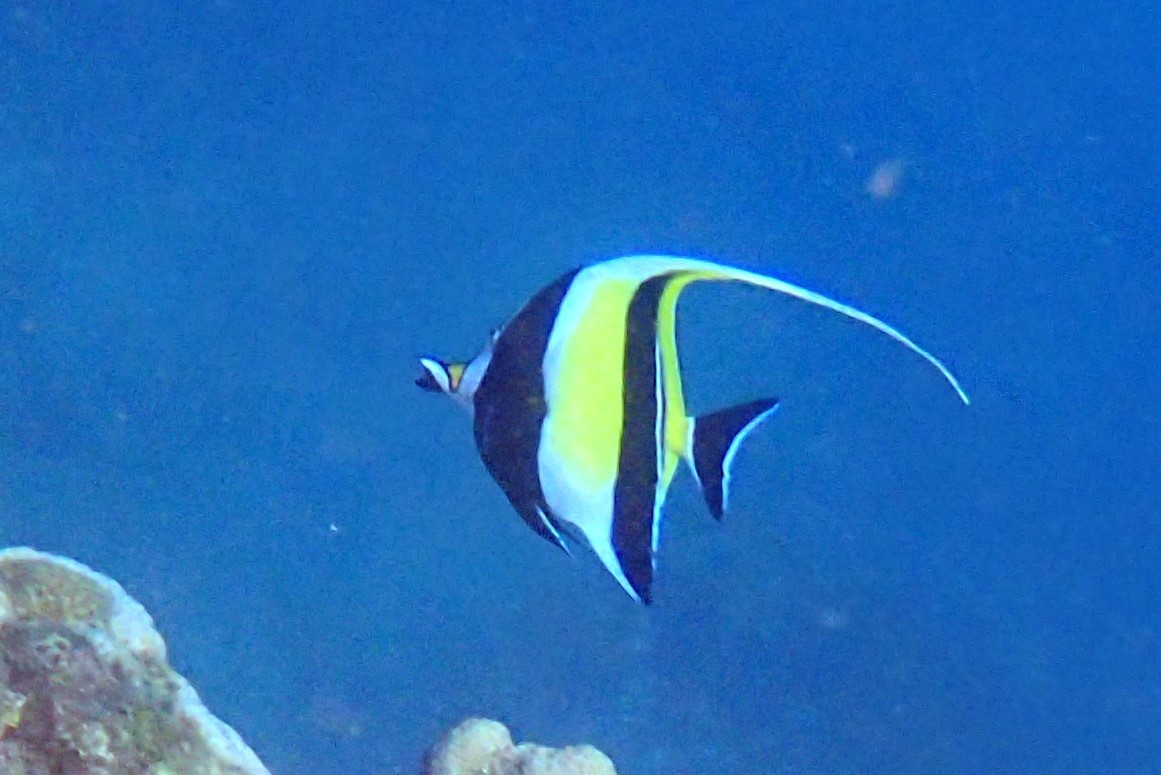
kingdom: Animalia
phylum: Chordata
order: Perciformes
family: Zanclidae
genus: Zanclus
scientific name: Zanclus cornutus
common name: Moorish idol
